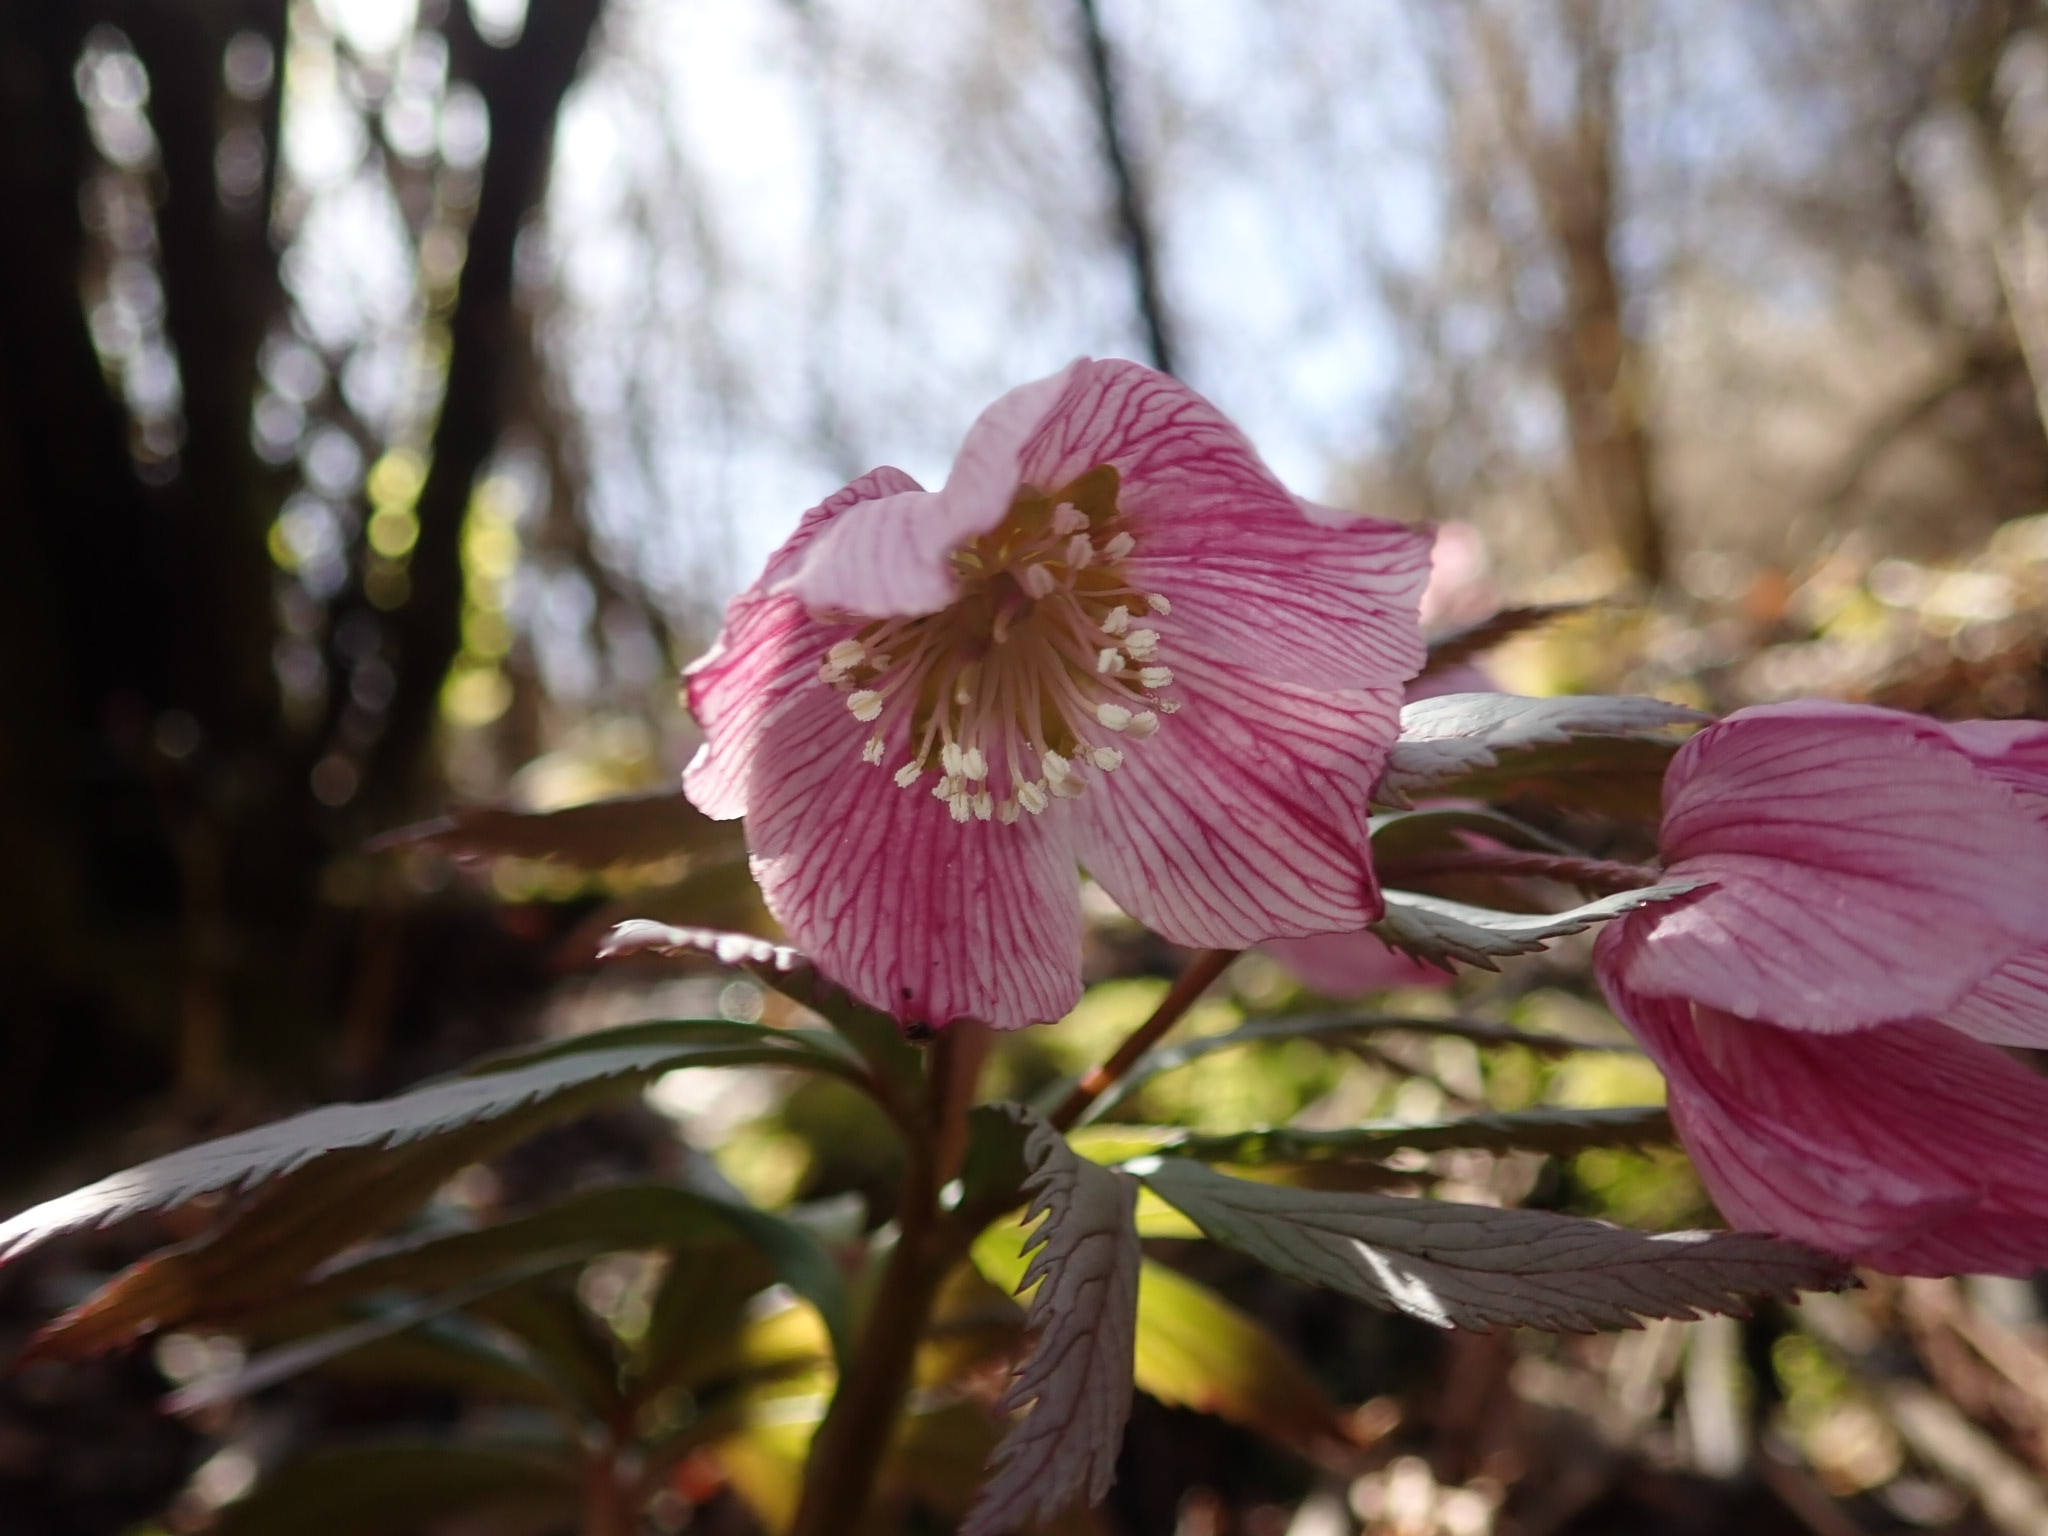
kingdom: Plantae
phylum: Tracheophyta
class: Magnoliopsida
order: Ranunculales
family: Ranunculaceae
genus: Helleborus
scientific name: Helleborus thibetanus
